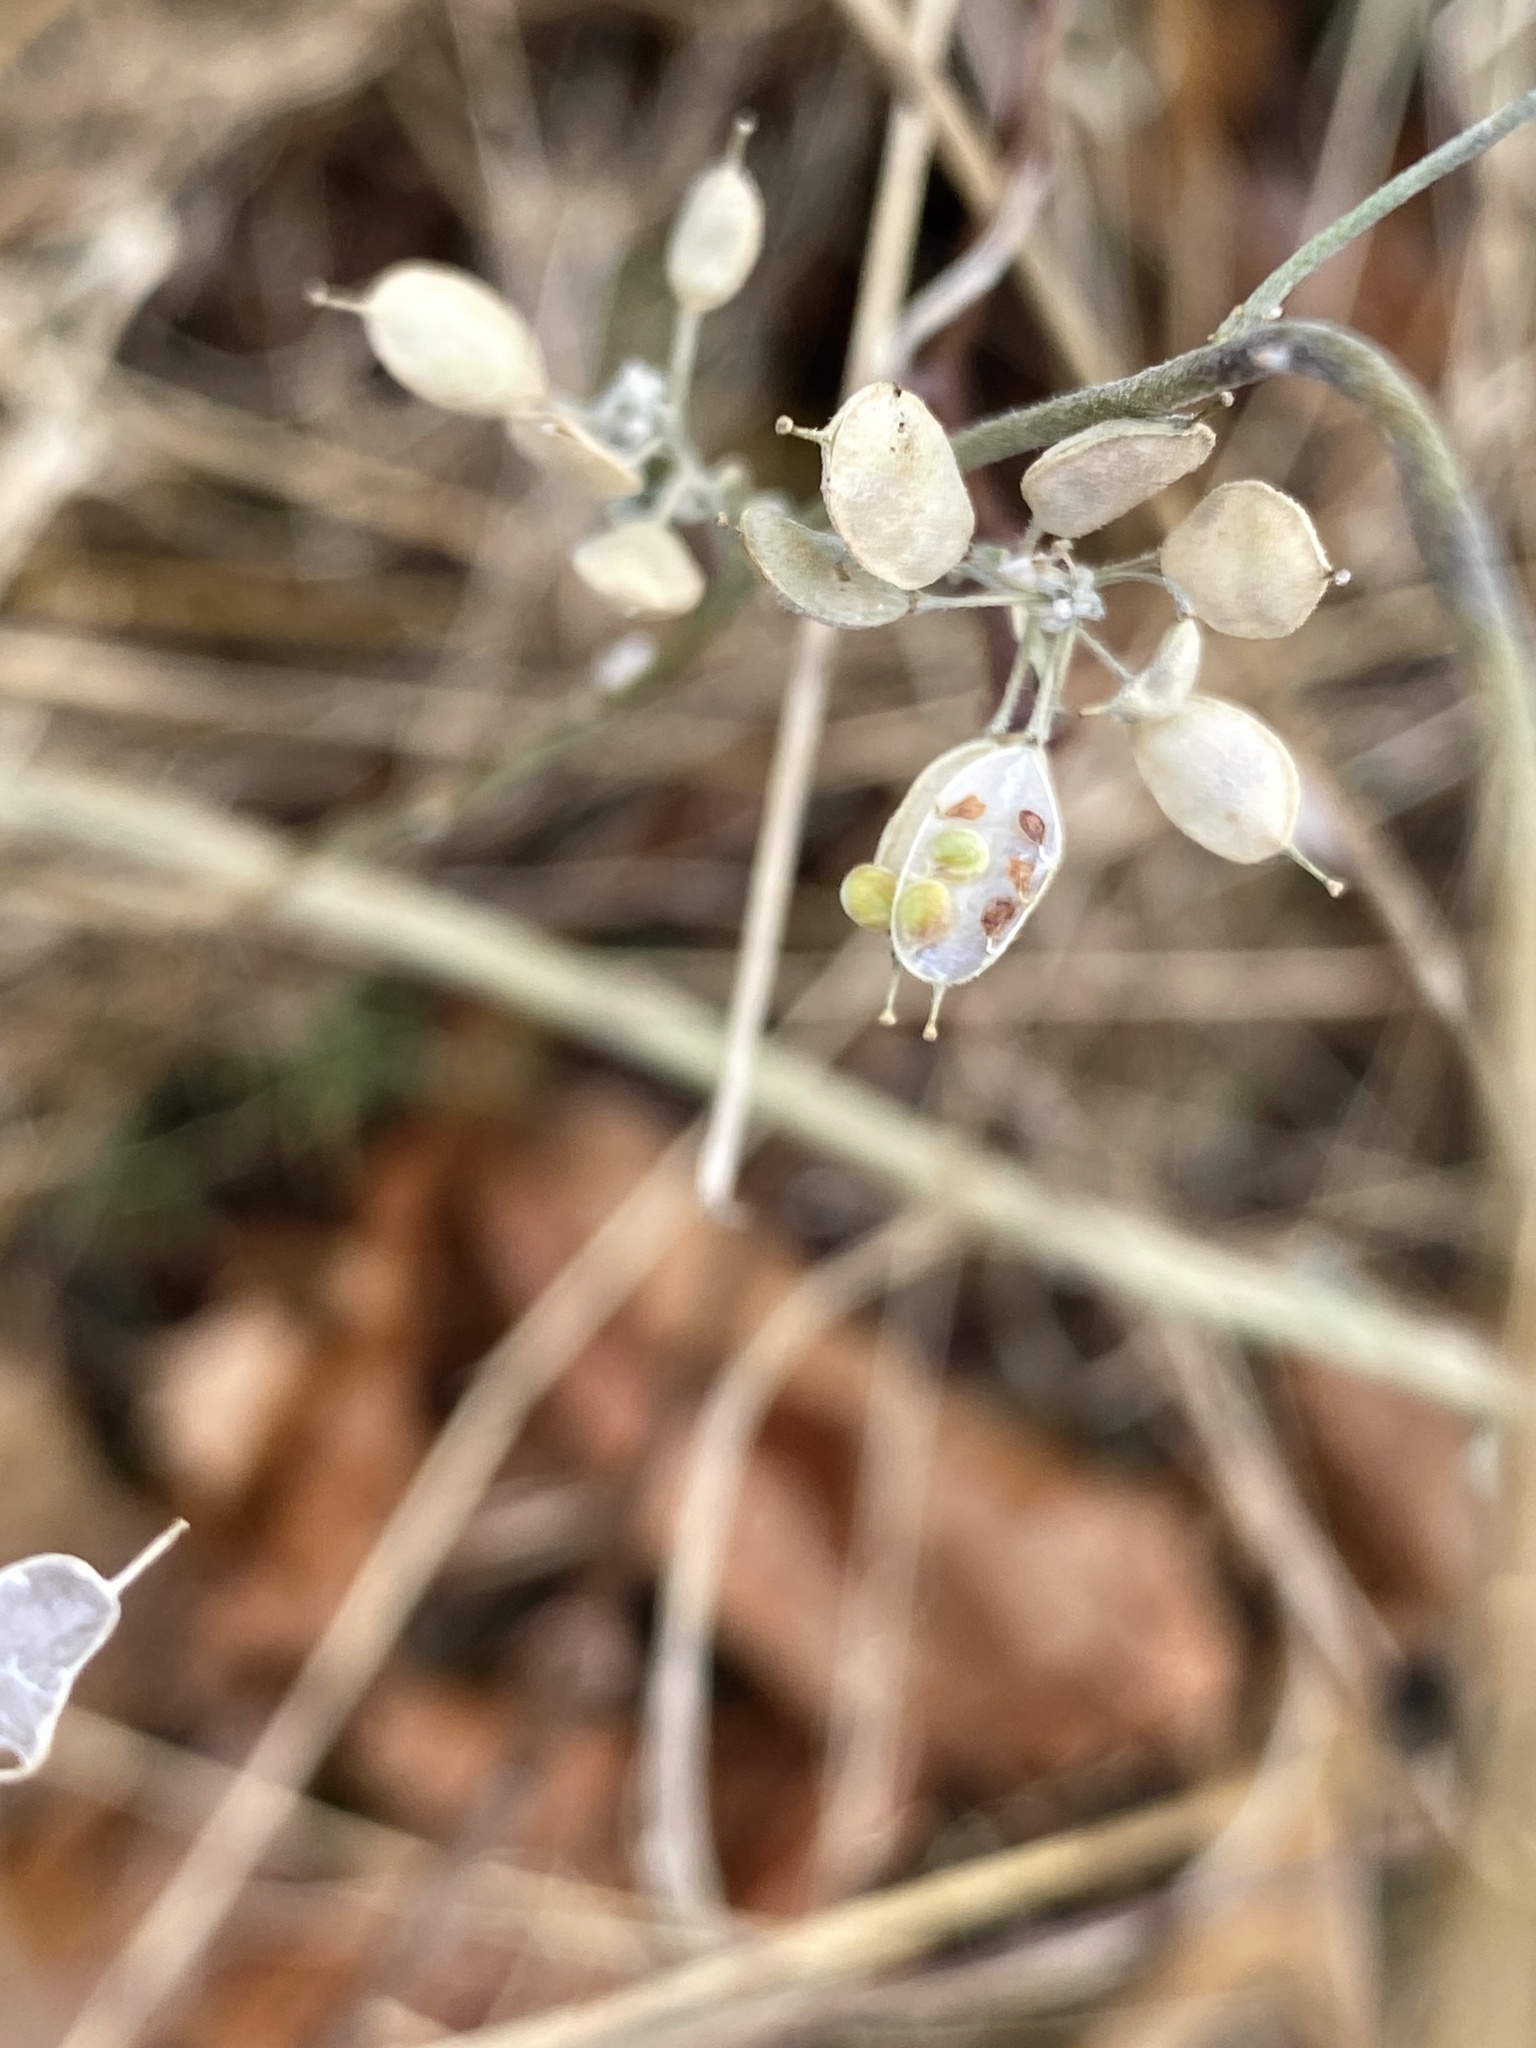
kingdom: Plantae
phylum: Tracheophyta
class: Magnoliopsida
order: Brassicales
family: Brassicaceae
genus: Berteroa
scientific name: Berteroa incana
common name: Hoary alison
